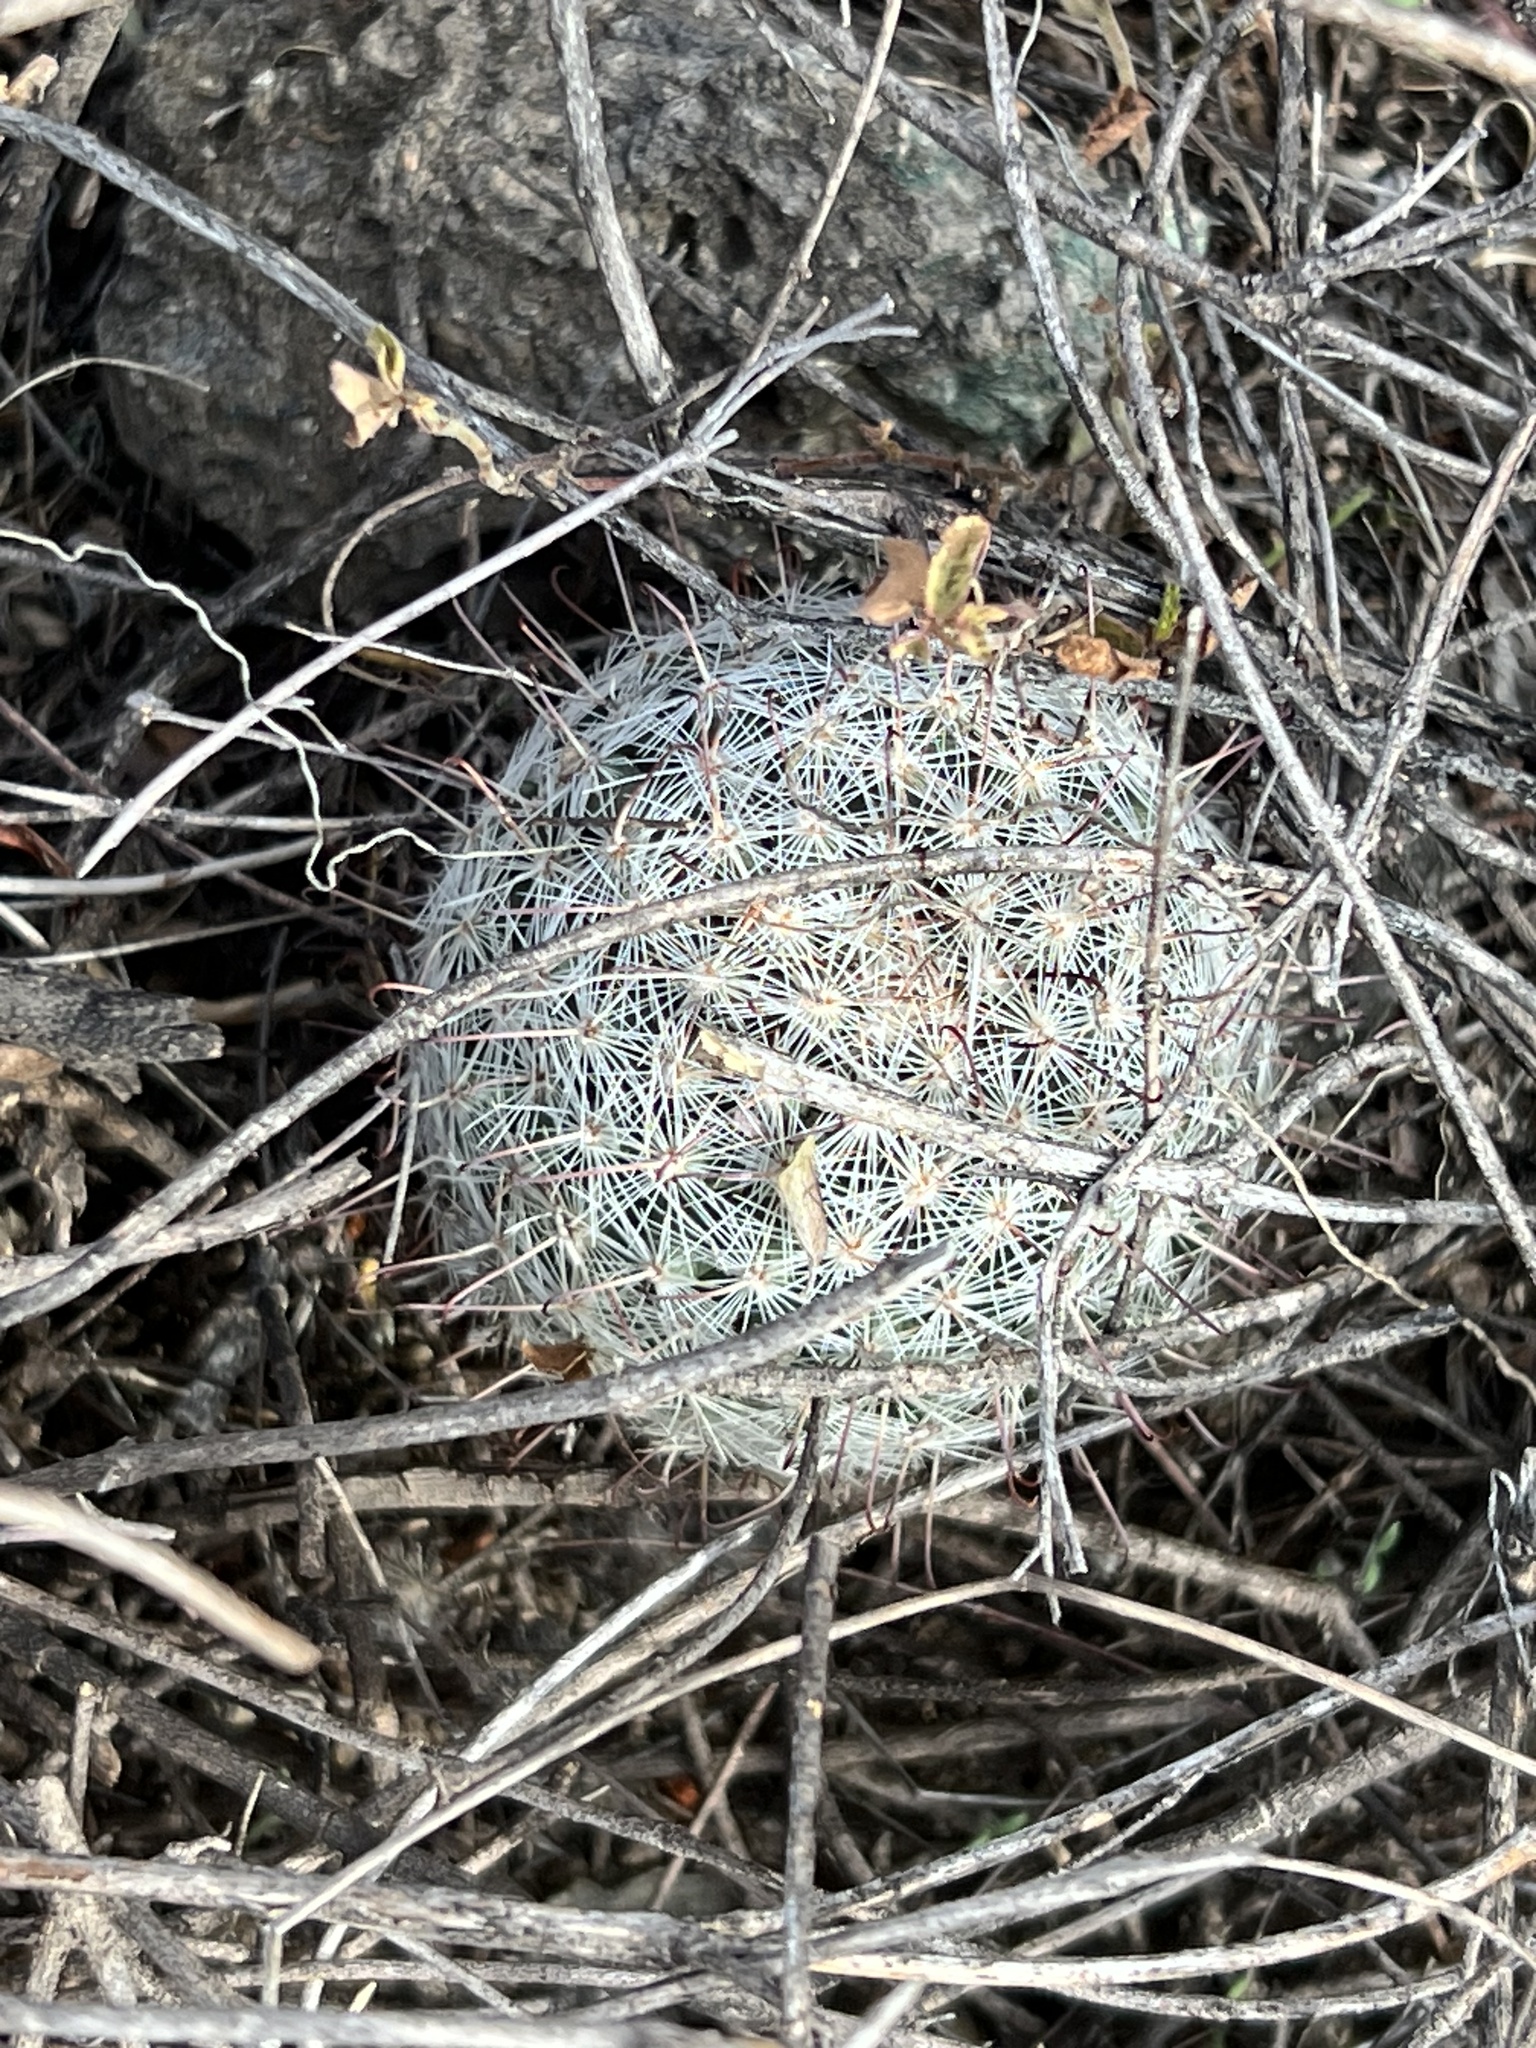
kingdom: Plantae
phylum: Tracheophyta
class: Magnoliopsida
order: Caryophyllales
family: Cactaceae
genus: Cochemiea
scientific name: Cochemiea grahamii
